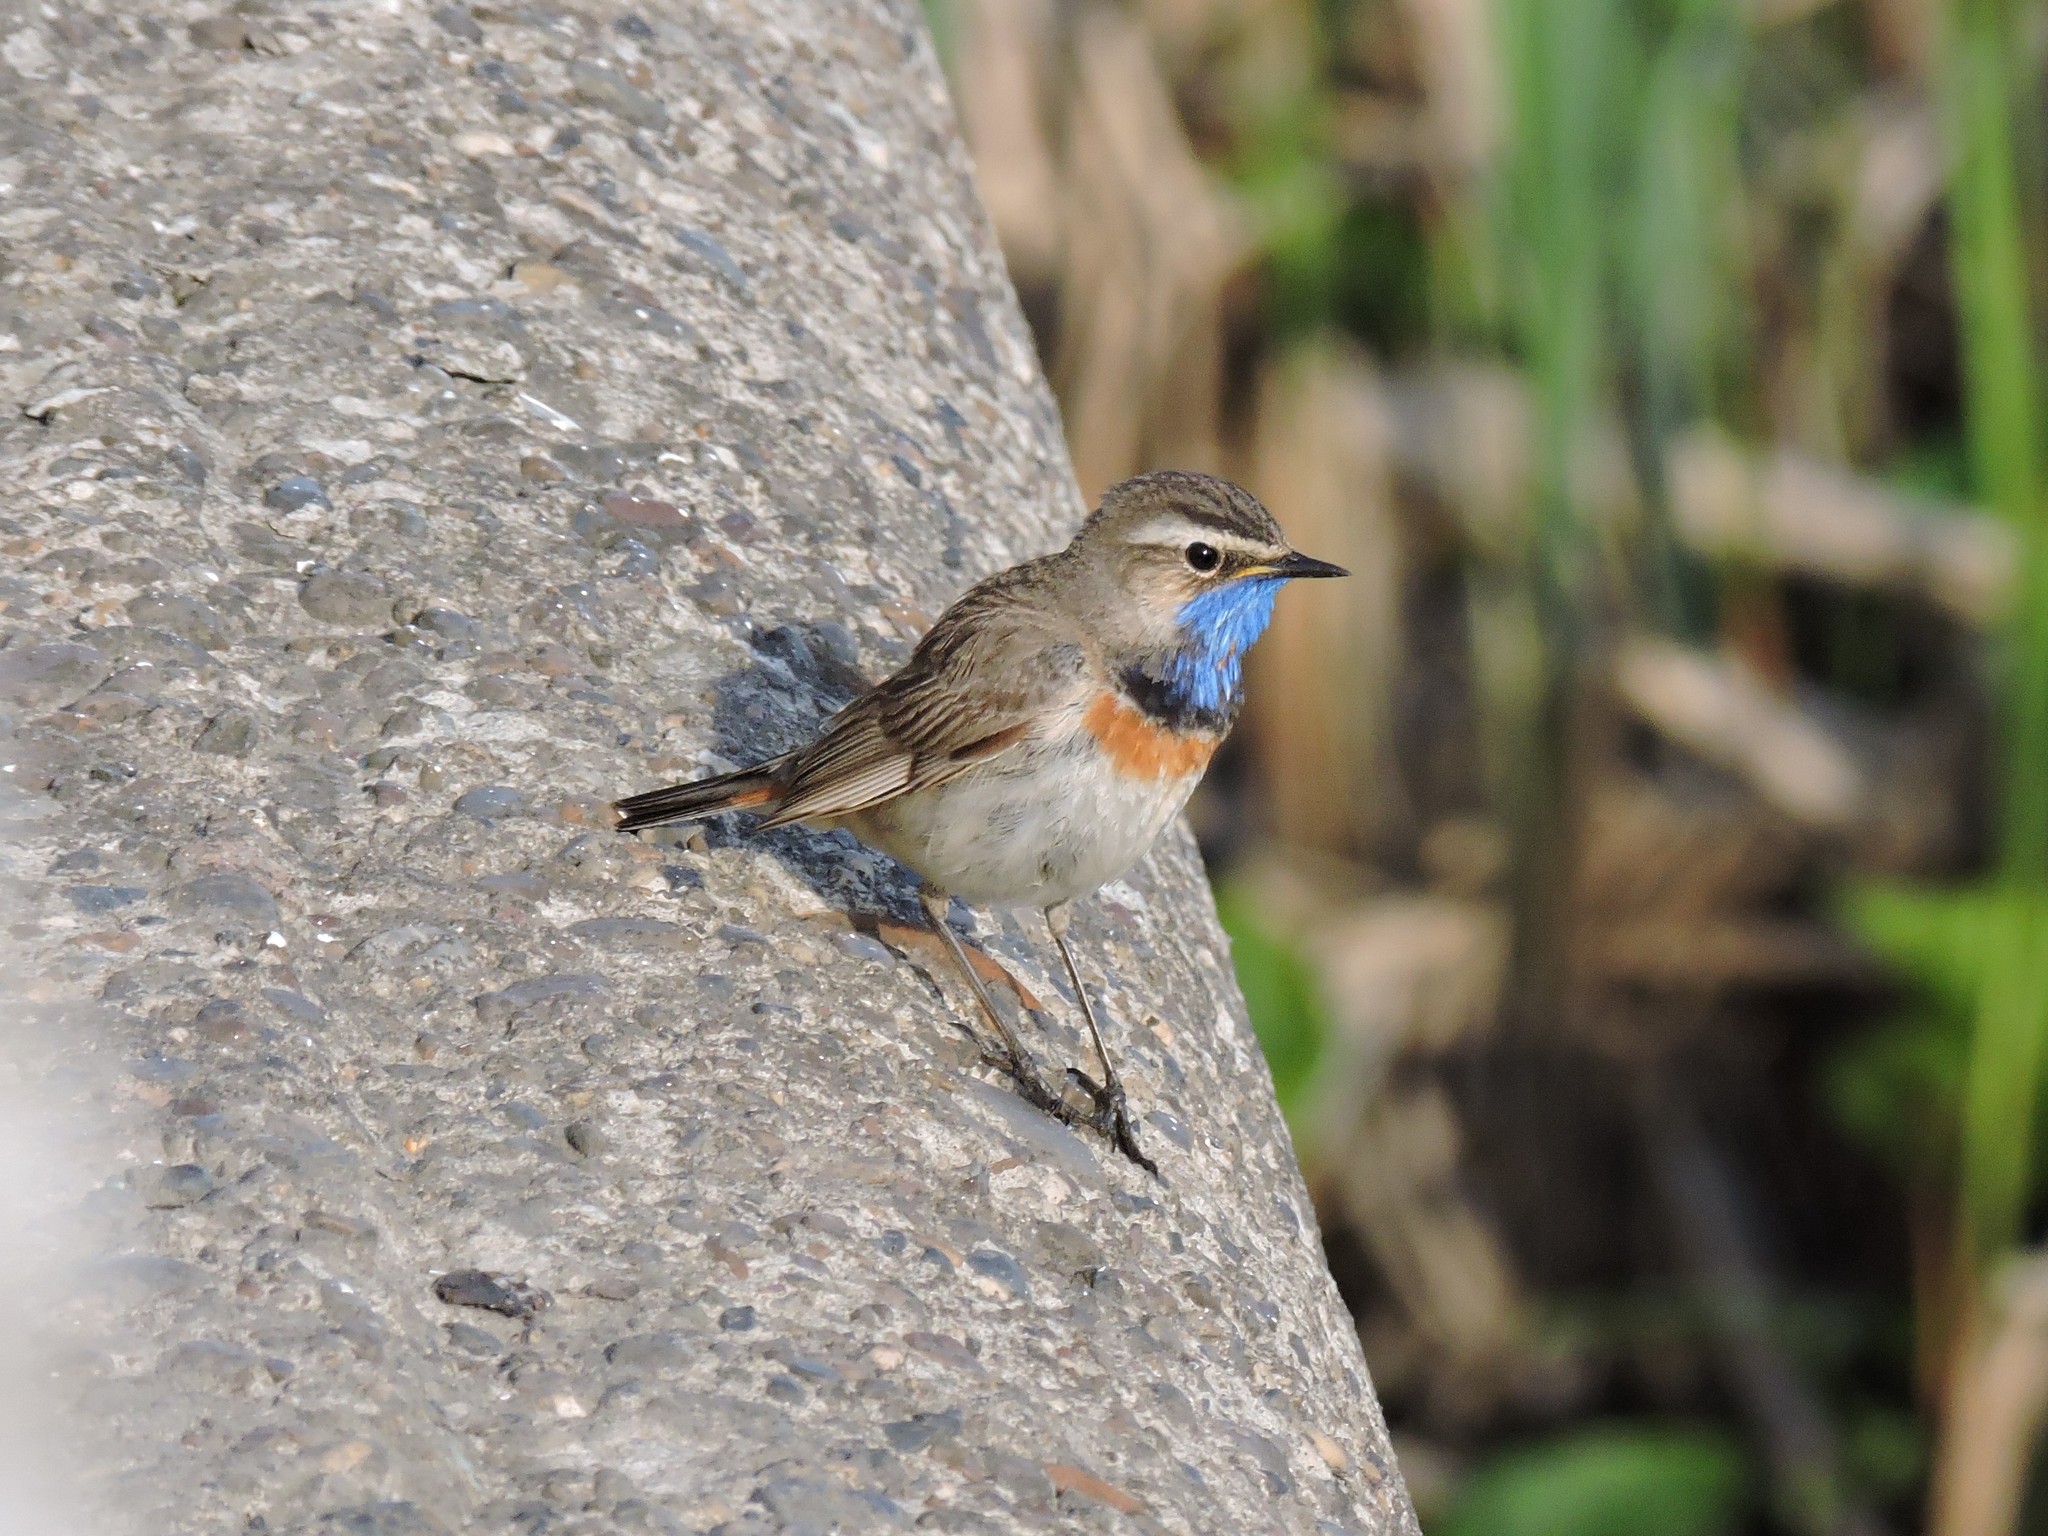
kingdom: Animalia
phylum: Chordata
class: Aves
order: Passeriformes
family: Muscicapidae
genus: Luscinia
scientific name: Luscinia svecica
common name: Bluethroat
